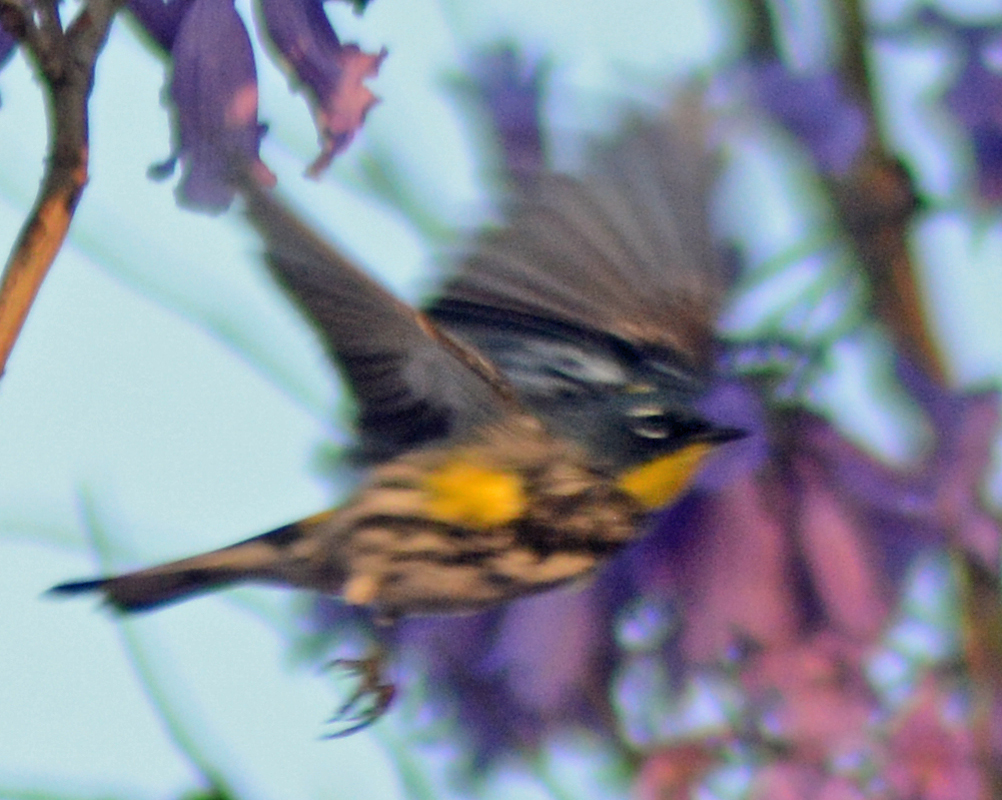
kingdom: Animalia
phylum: Chordata
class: Aves
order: Passeriformes
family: Parulidae
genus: Setophaga
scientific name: Setophaga auduboni
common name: Audubon's warbler
